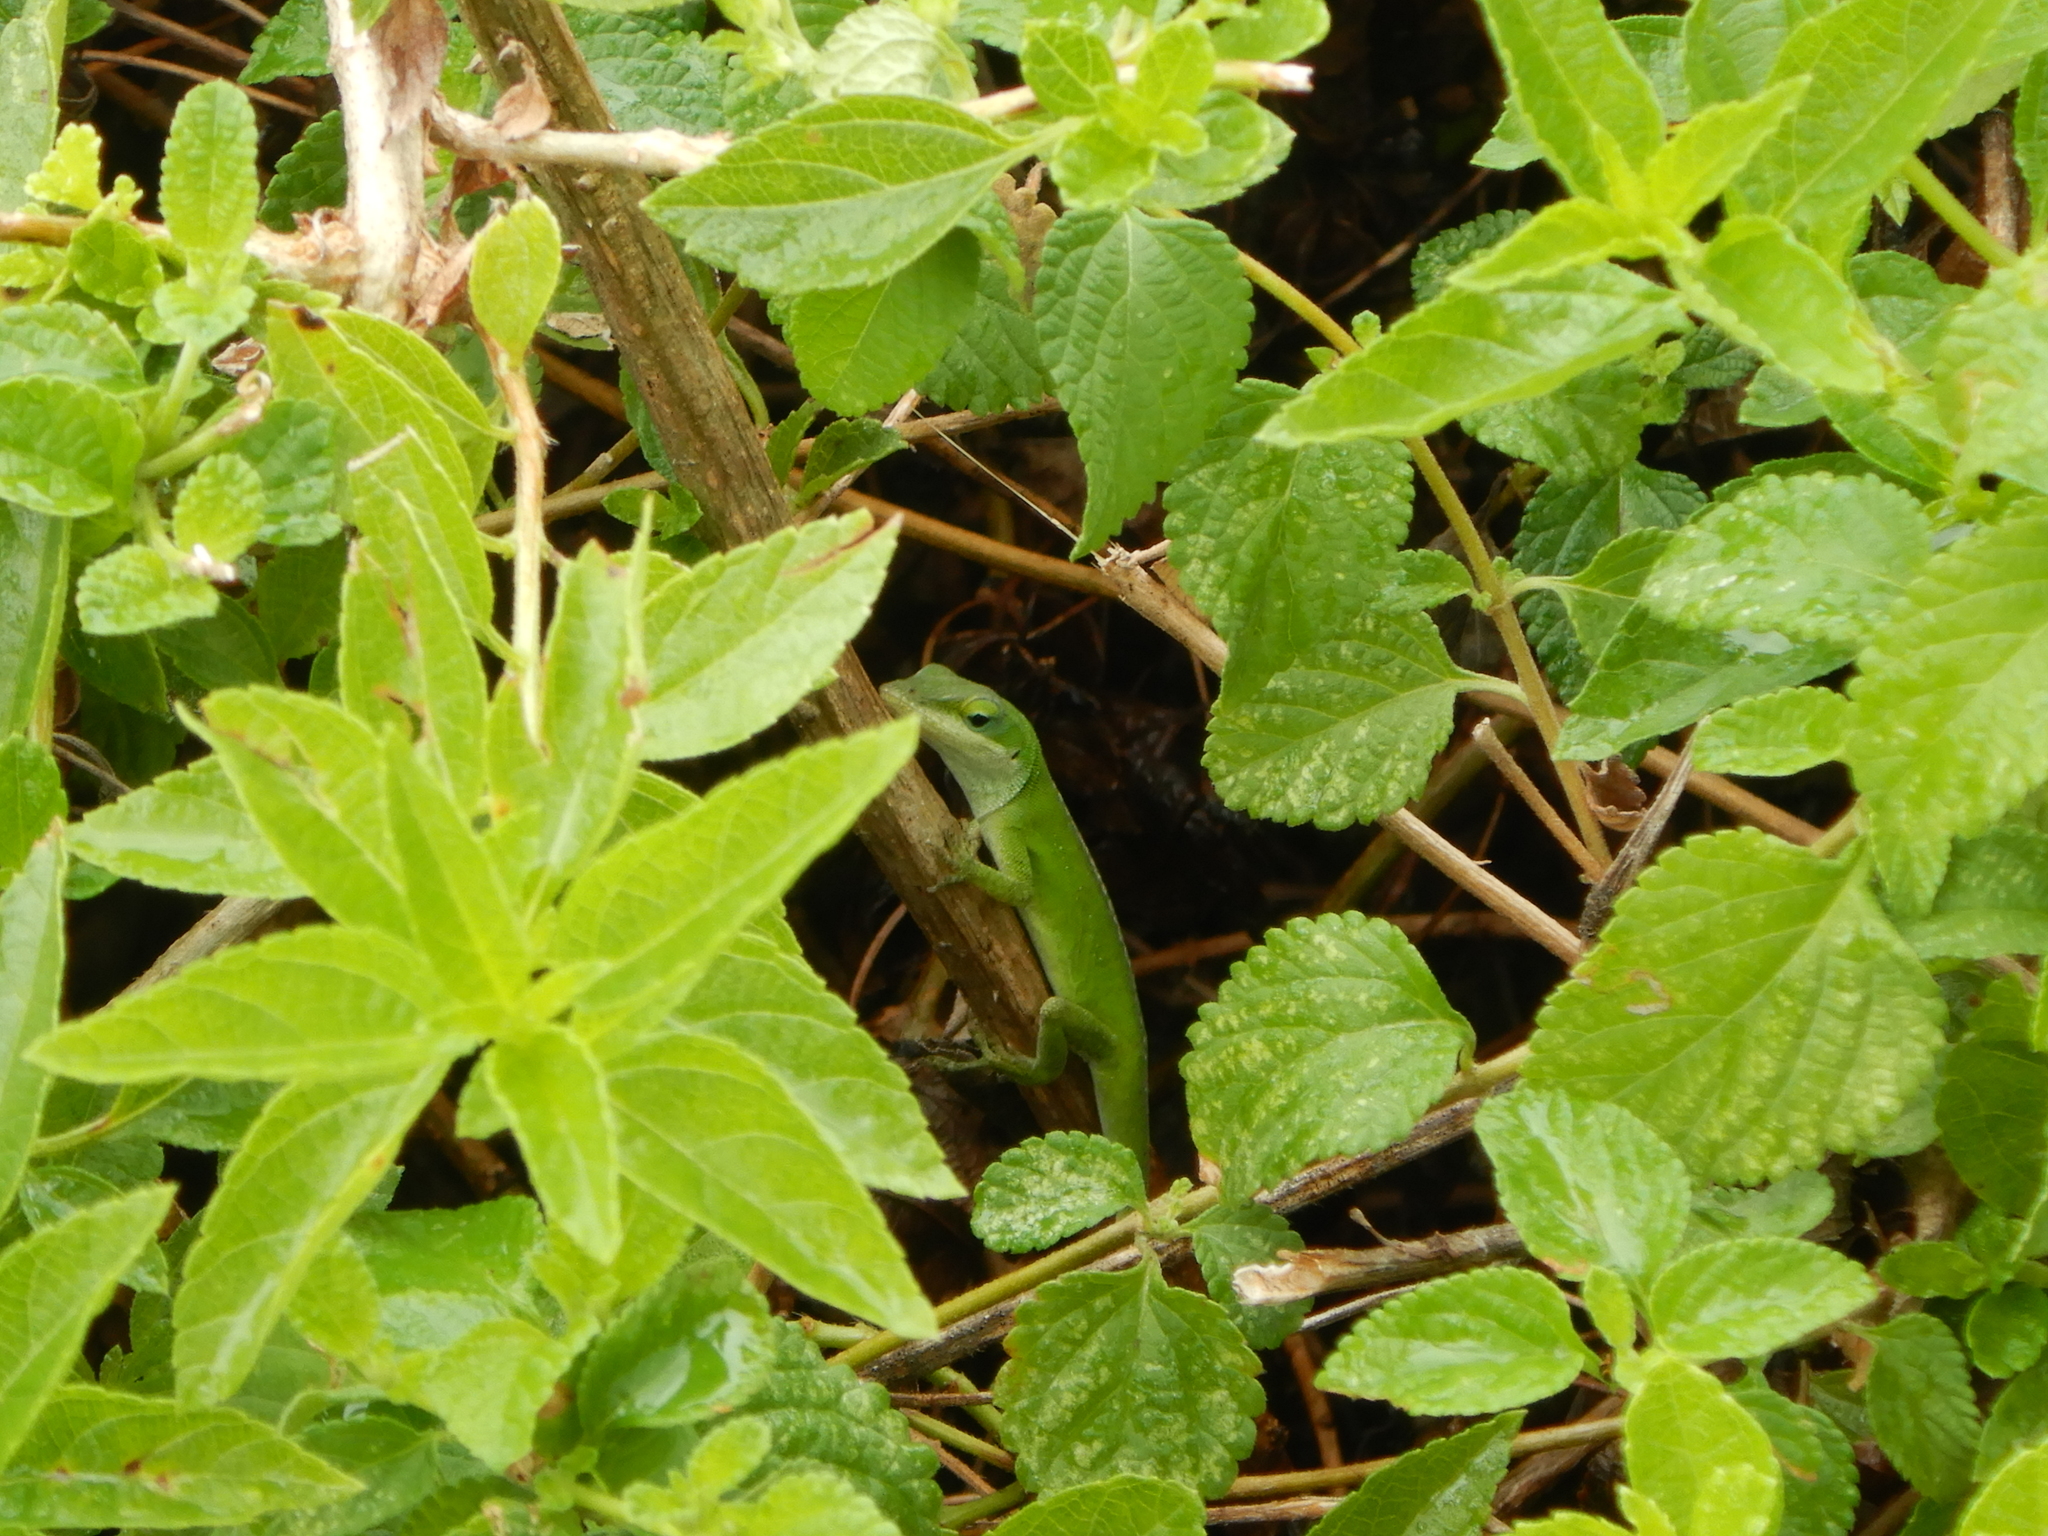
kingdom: Animalia
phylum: Chordata
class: Squamata
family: Dactyloidae
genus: Anolis
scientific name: Anolis carolinensis
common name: Green anole
